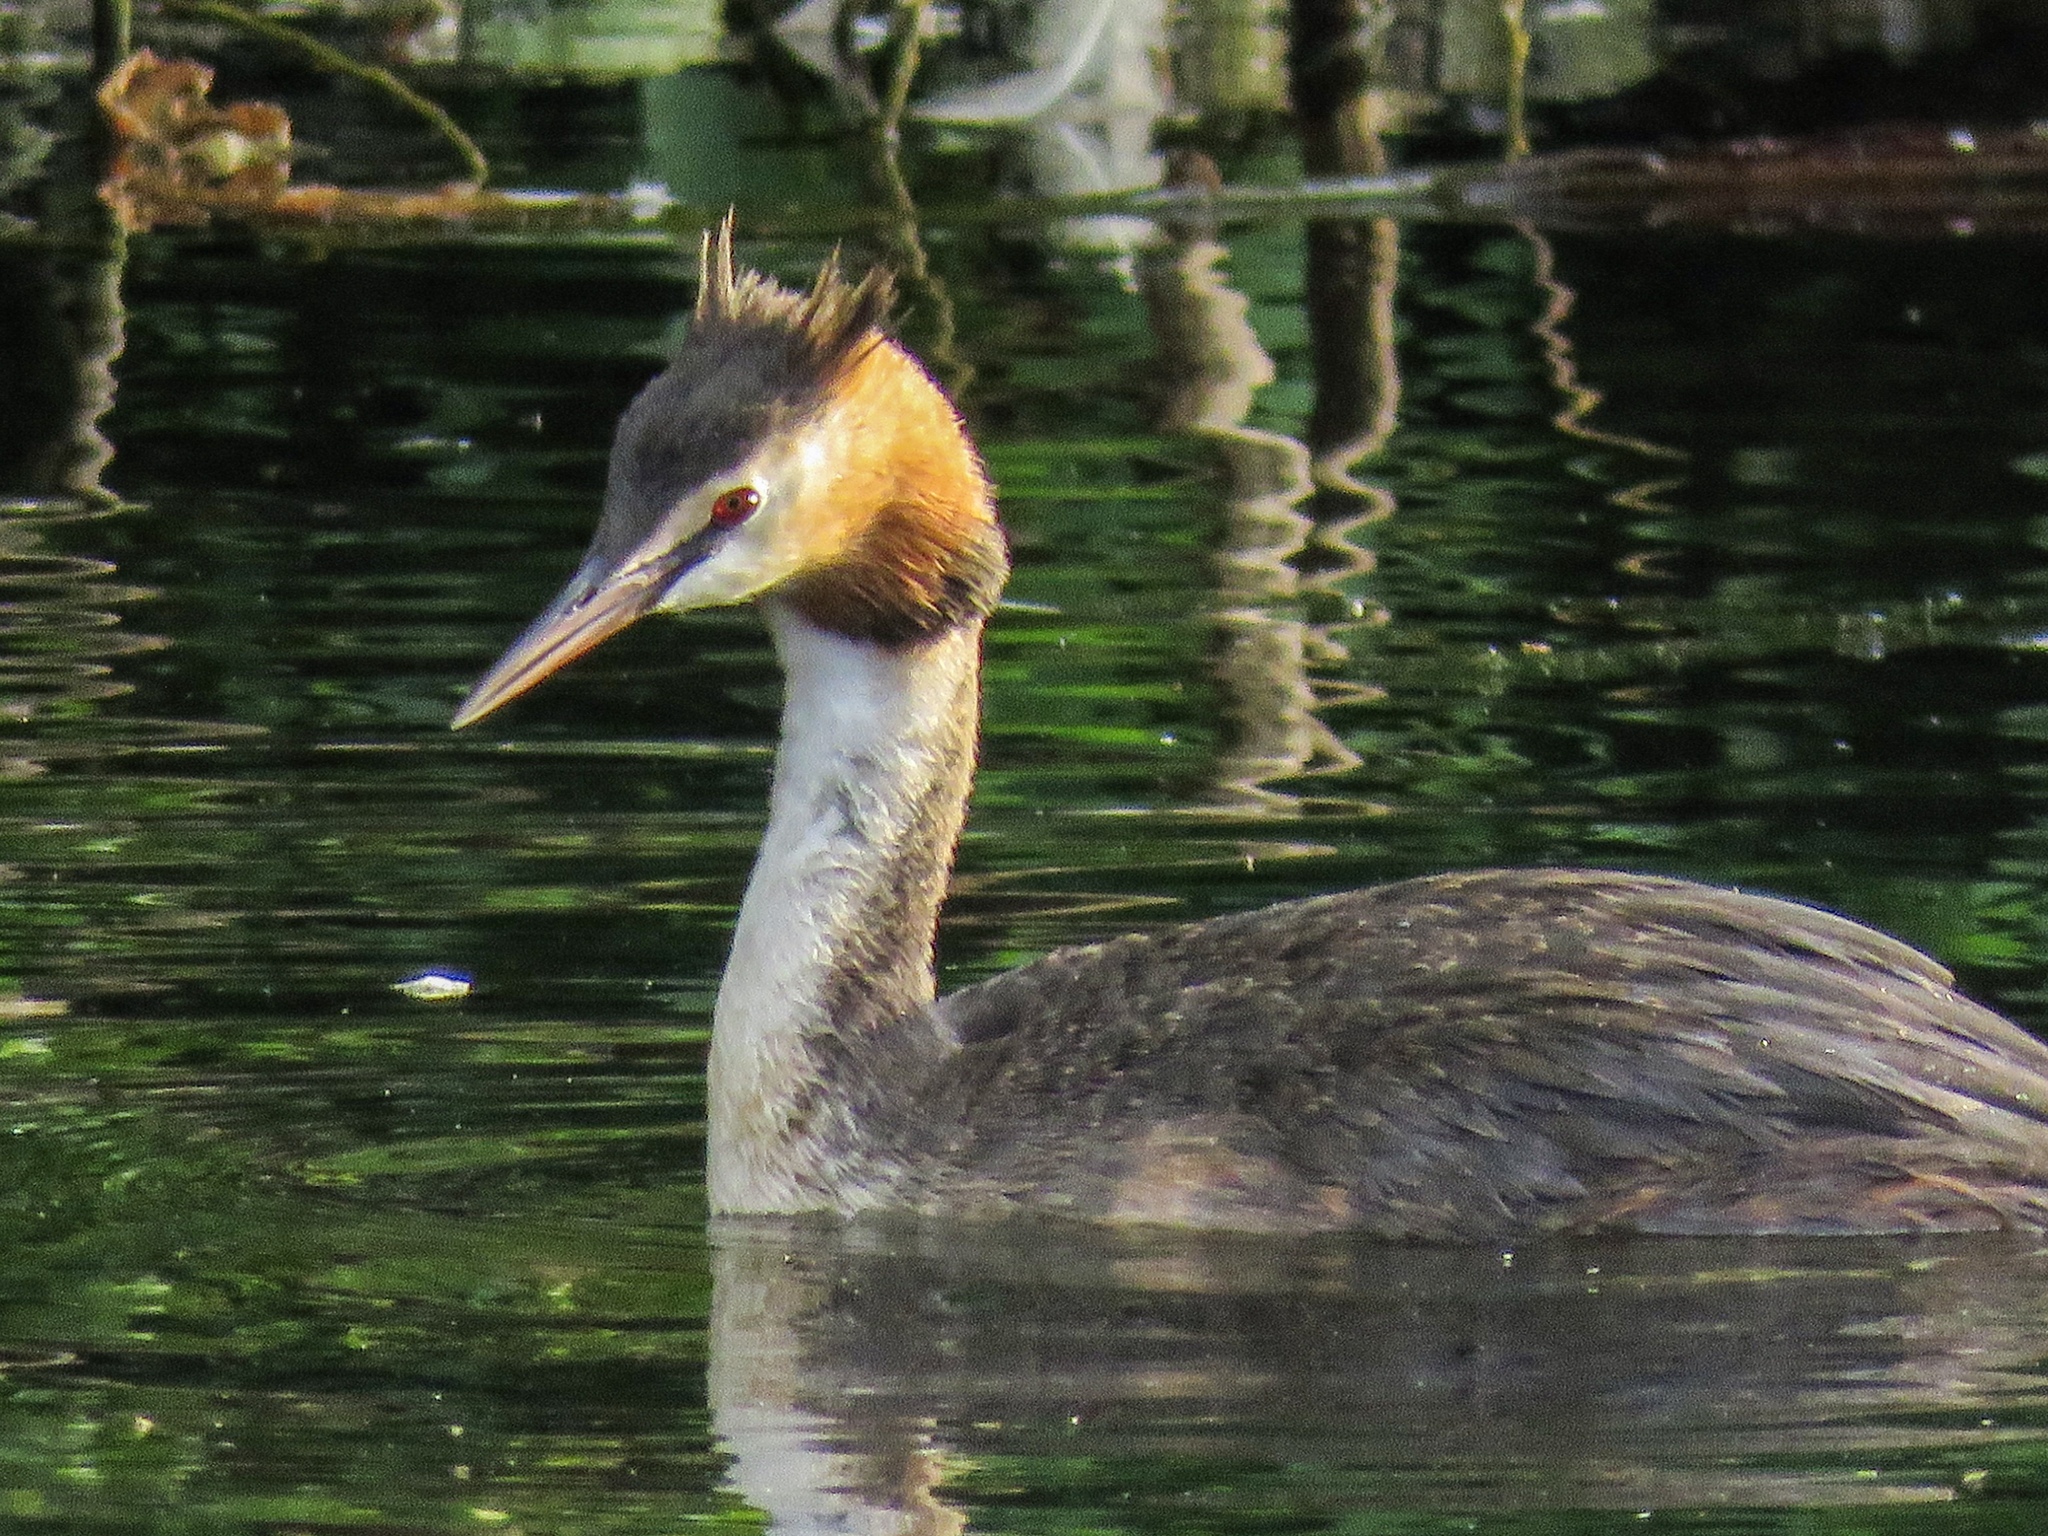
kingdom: Animalia
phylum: Chordata
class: Aves
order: Podicipediformes
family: Podicipedidae
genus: Podiceps
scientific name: Podiceps cristatus
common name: Great crested grebe
